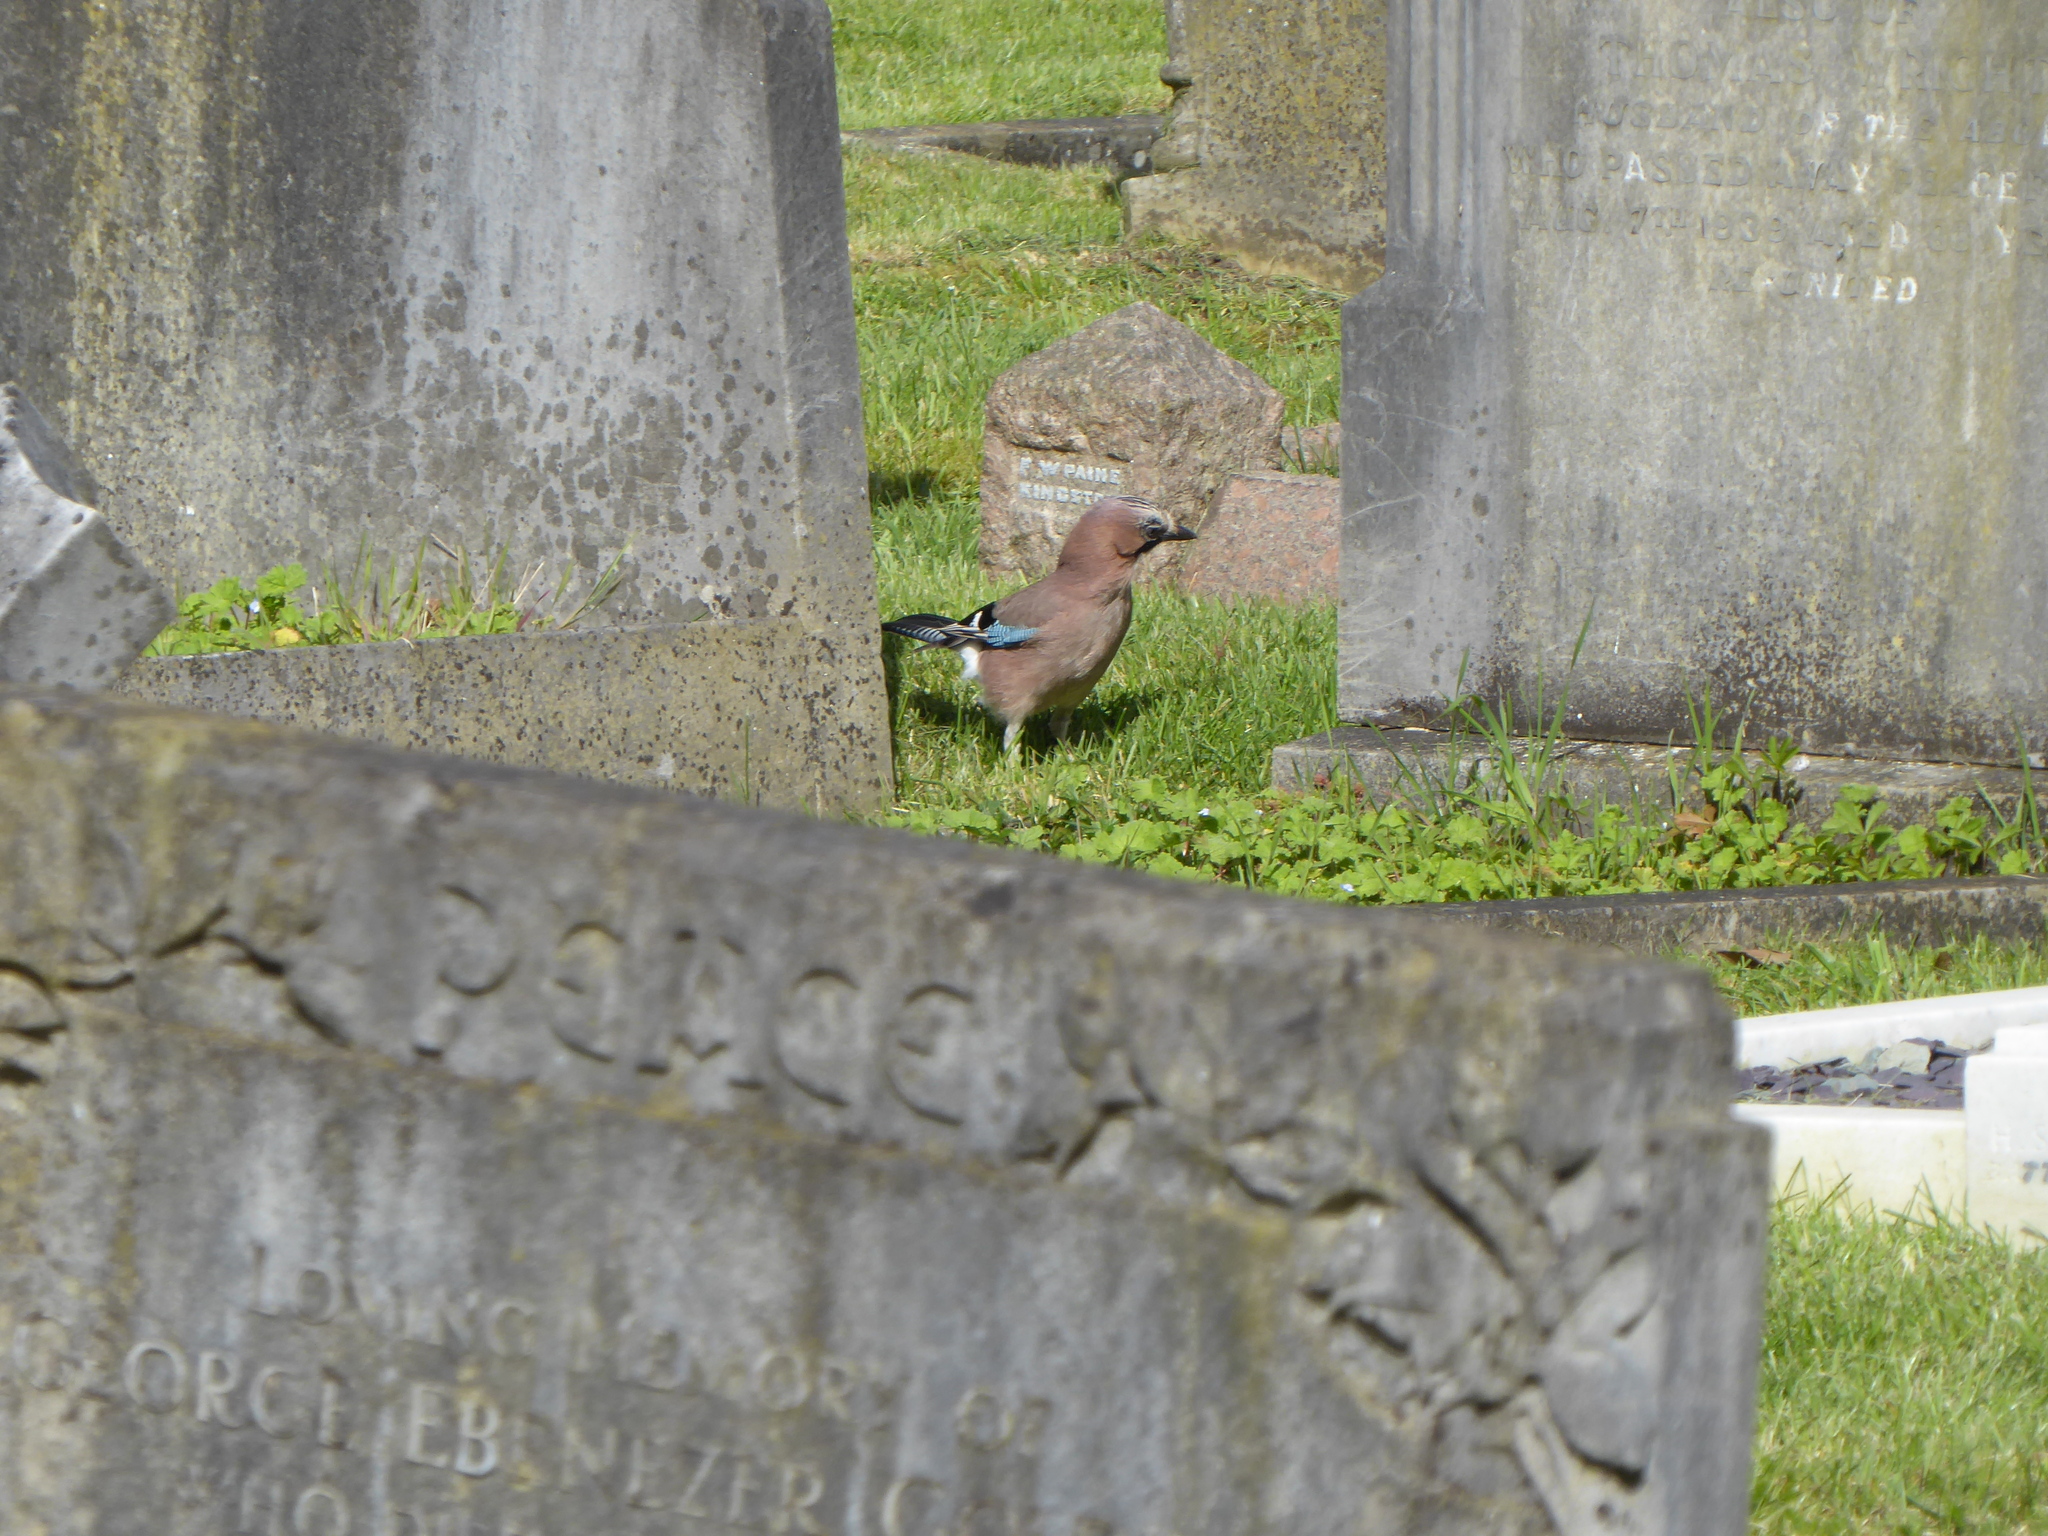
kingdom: Animalia
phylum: Chordata
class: Aves
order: Passeriformes
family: Corvidae
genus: Garrulus
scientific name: Garrulus glandarius
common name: Eurasian jay
